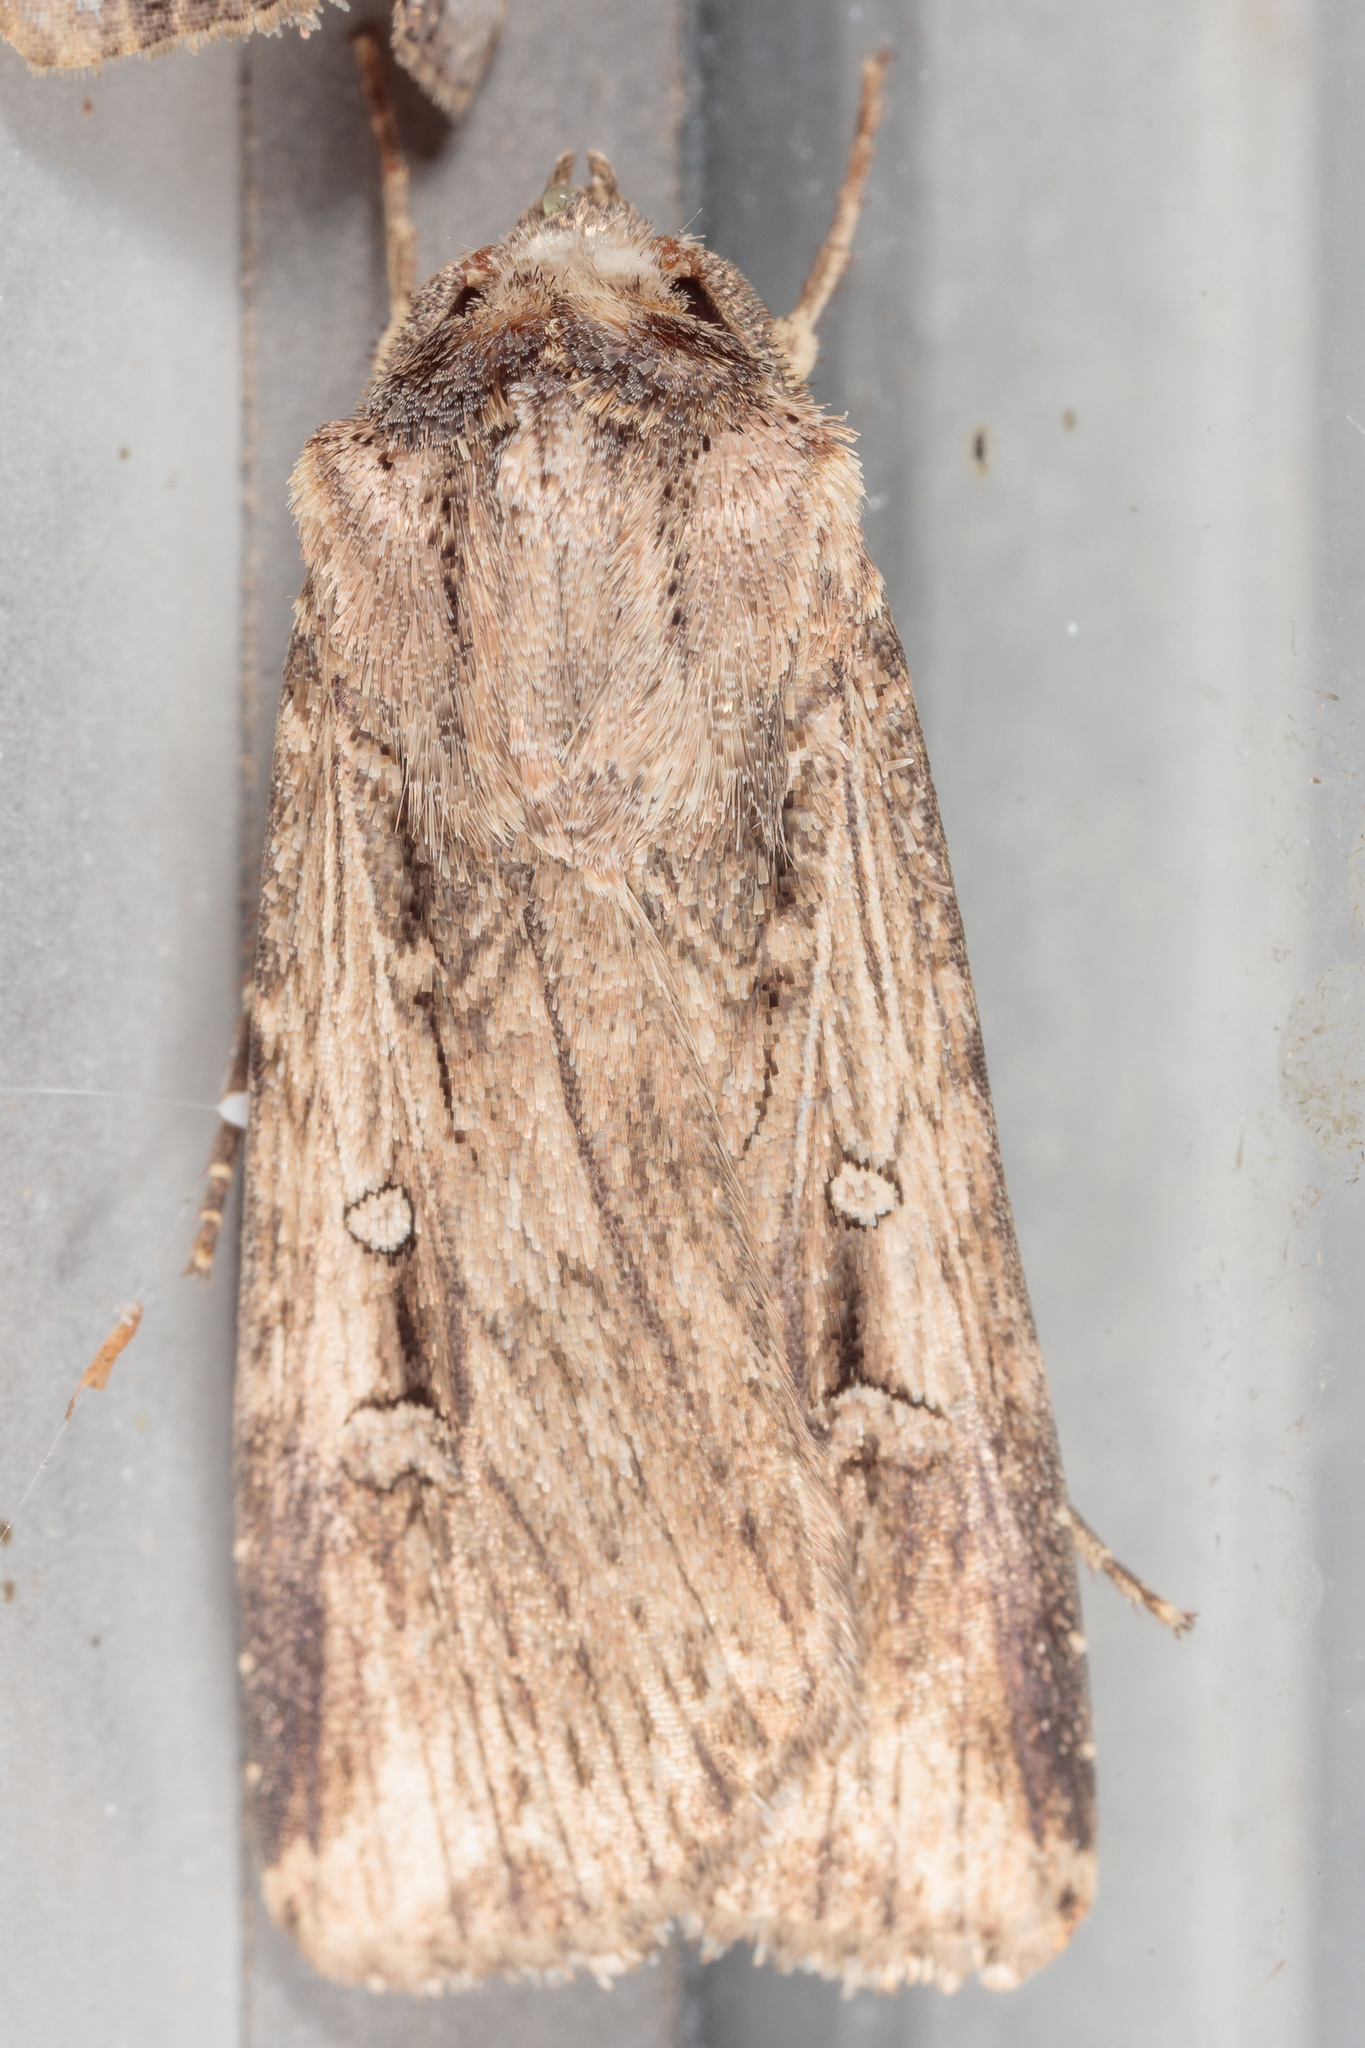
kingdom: Animalia
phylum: Arthropoda
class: Insecta
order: Lepidoptera
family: Noctuidae
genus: Feltia
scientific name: Feltia subterranea
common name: Granulate cutworm
